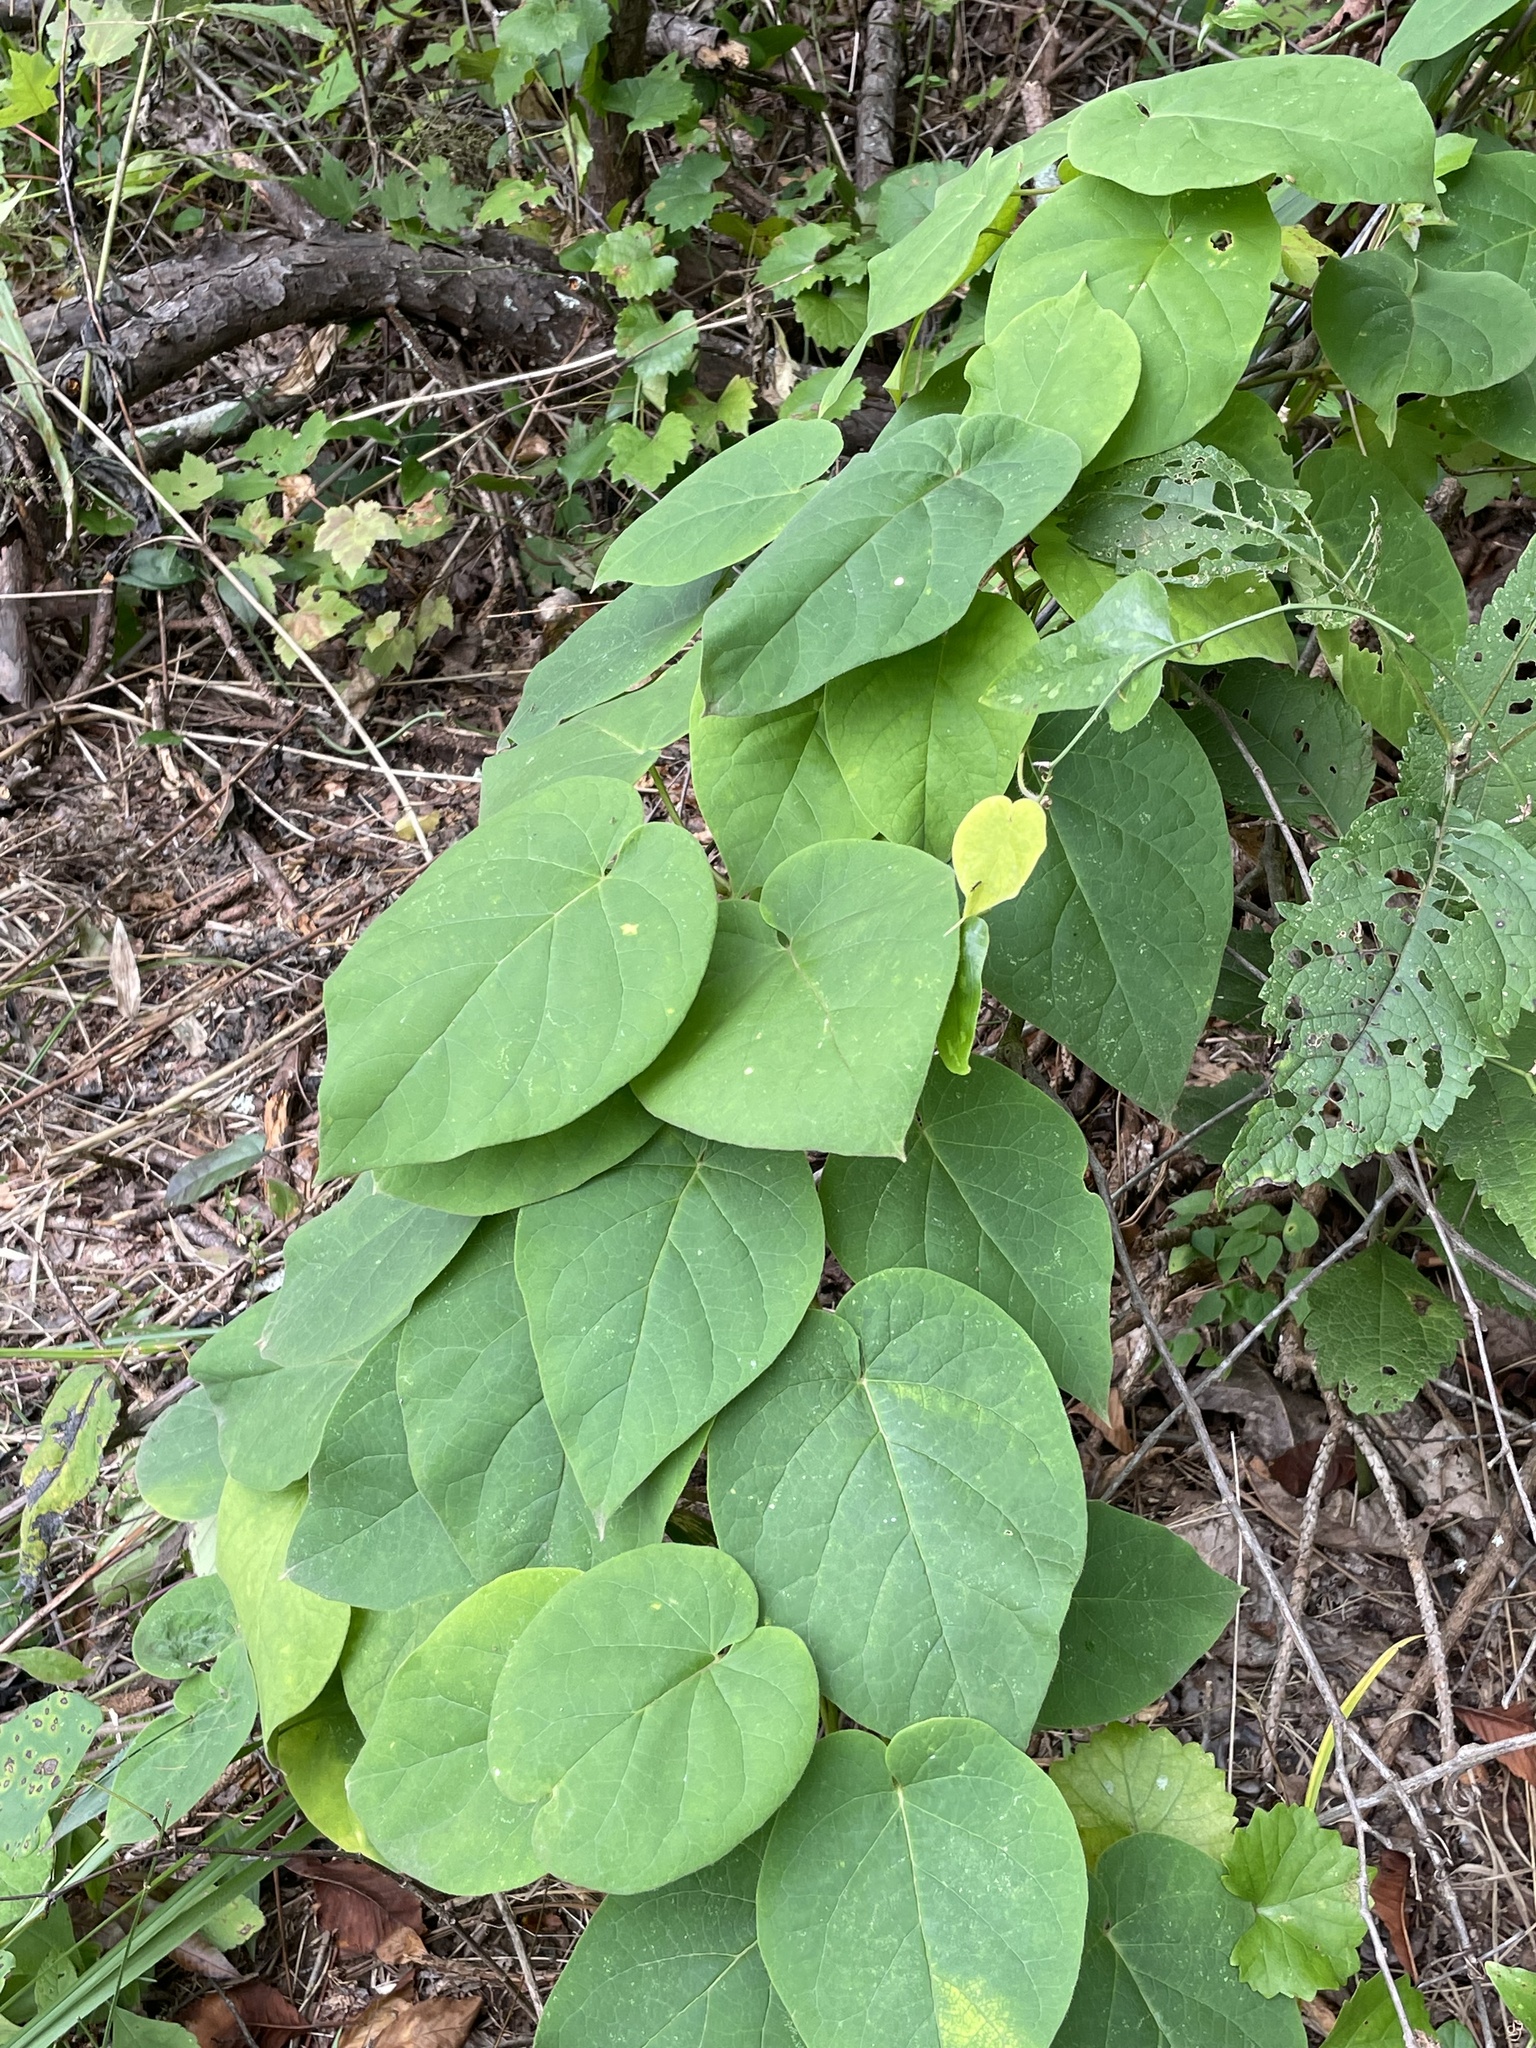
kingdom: Plantae
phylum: Tracheophyta
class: Magnoliopsida
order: Gentianales
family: Apocynaceae
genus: Matelea
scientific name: Matelea carolinensis
